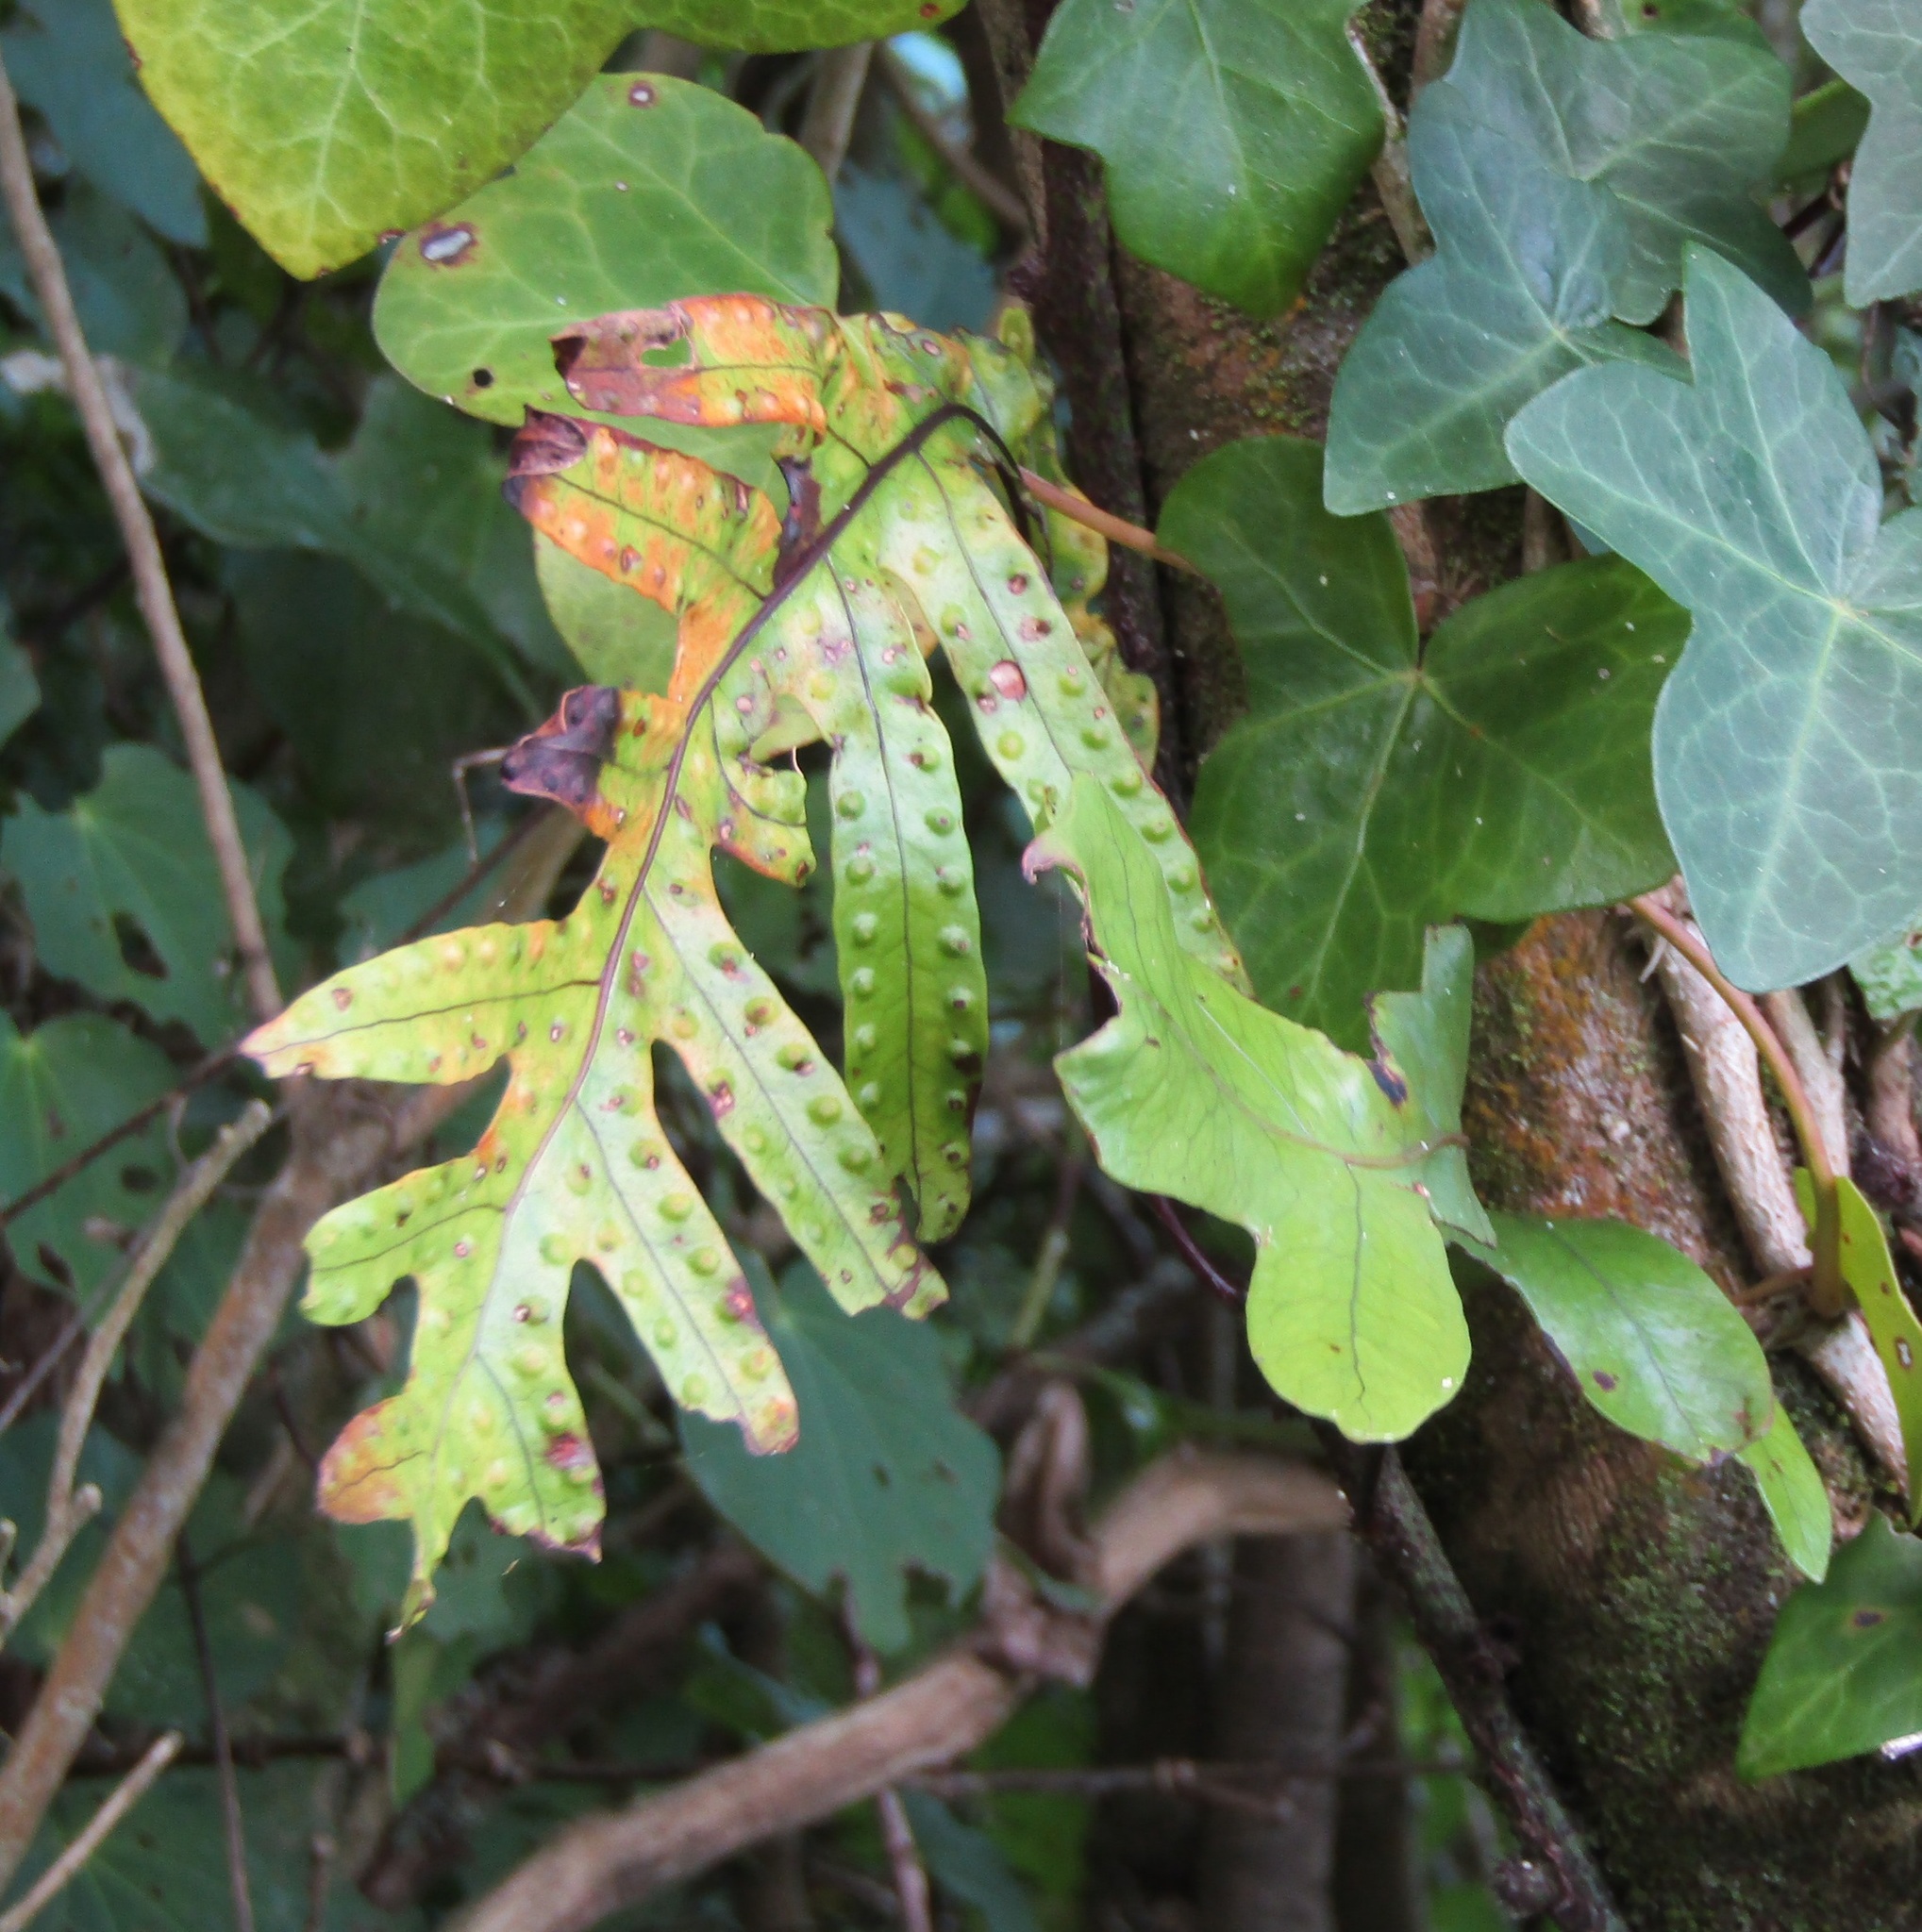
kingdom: Plantae
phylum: Tracheophyta
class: Polypodiopsida
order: Polypodiales
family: Polypodiaceae
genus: Lecanopteris
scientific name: Lecanopteris pustulata
